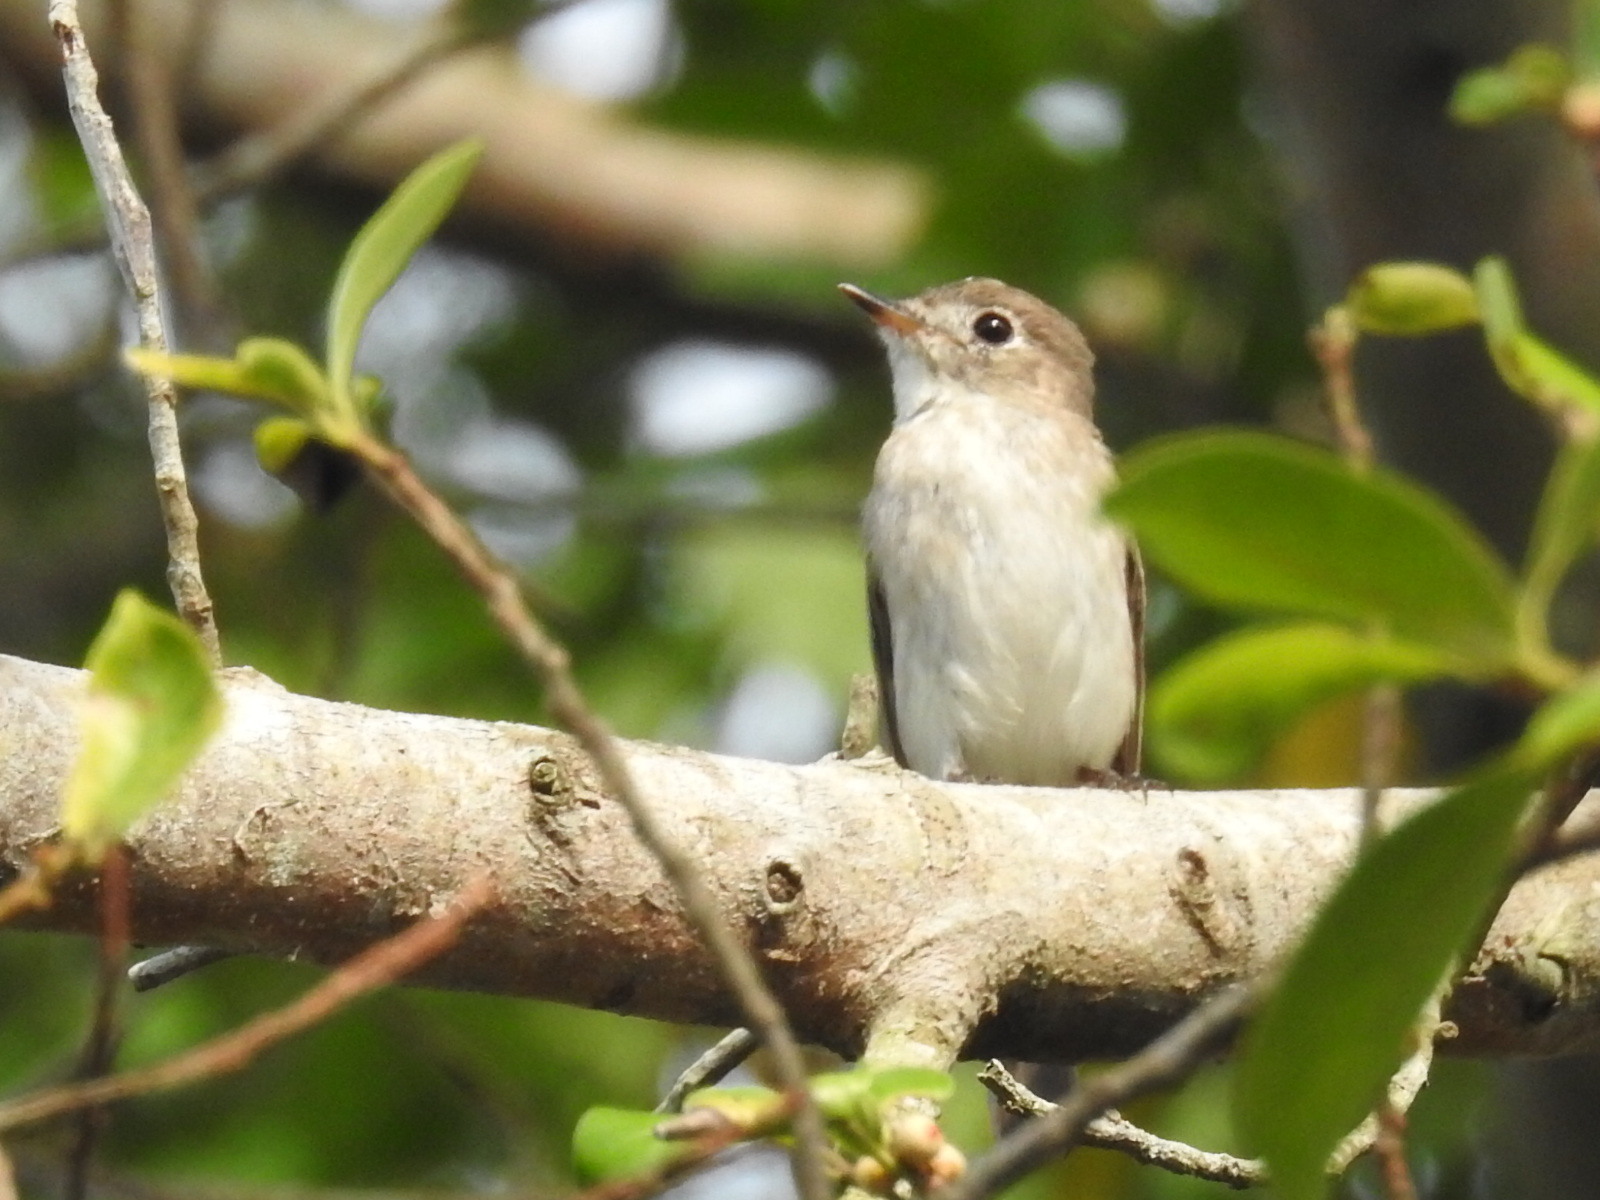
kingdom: Animalia
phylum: Chordata
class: Aves
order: Passeriformes
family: Muscicapidae
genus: Muscicapa
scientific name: Muscicapa latirostris
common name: Asian brown flycatcher
